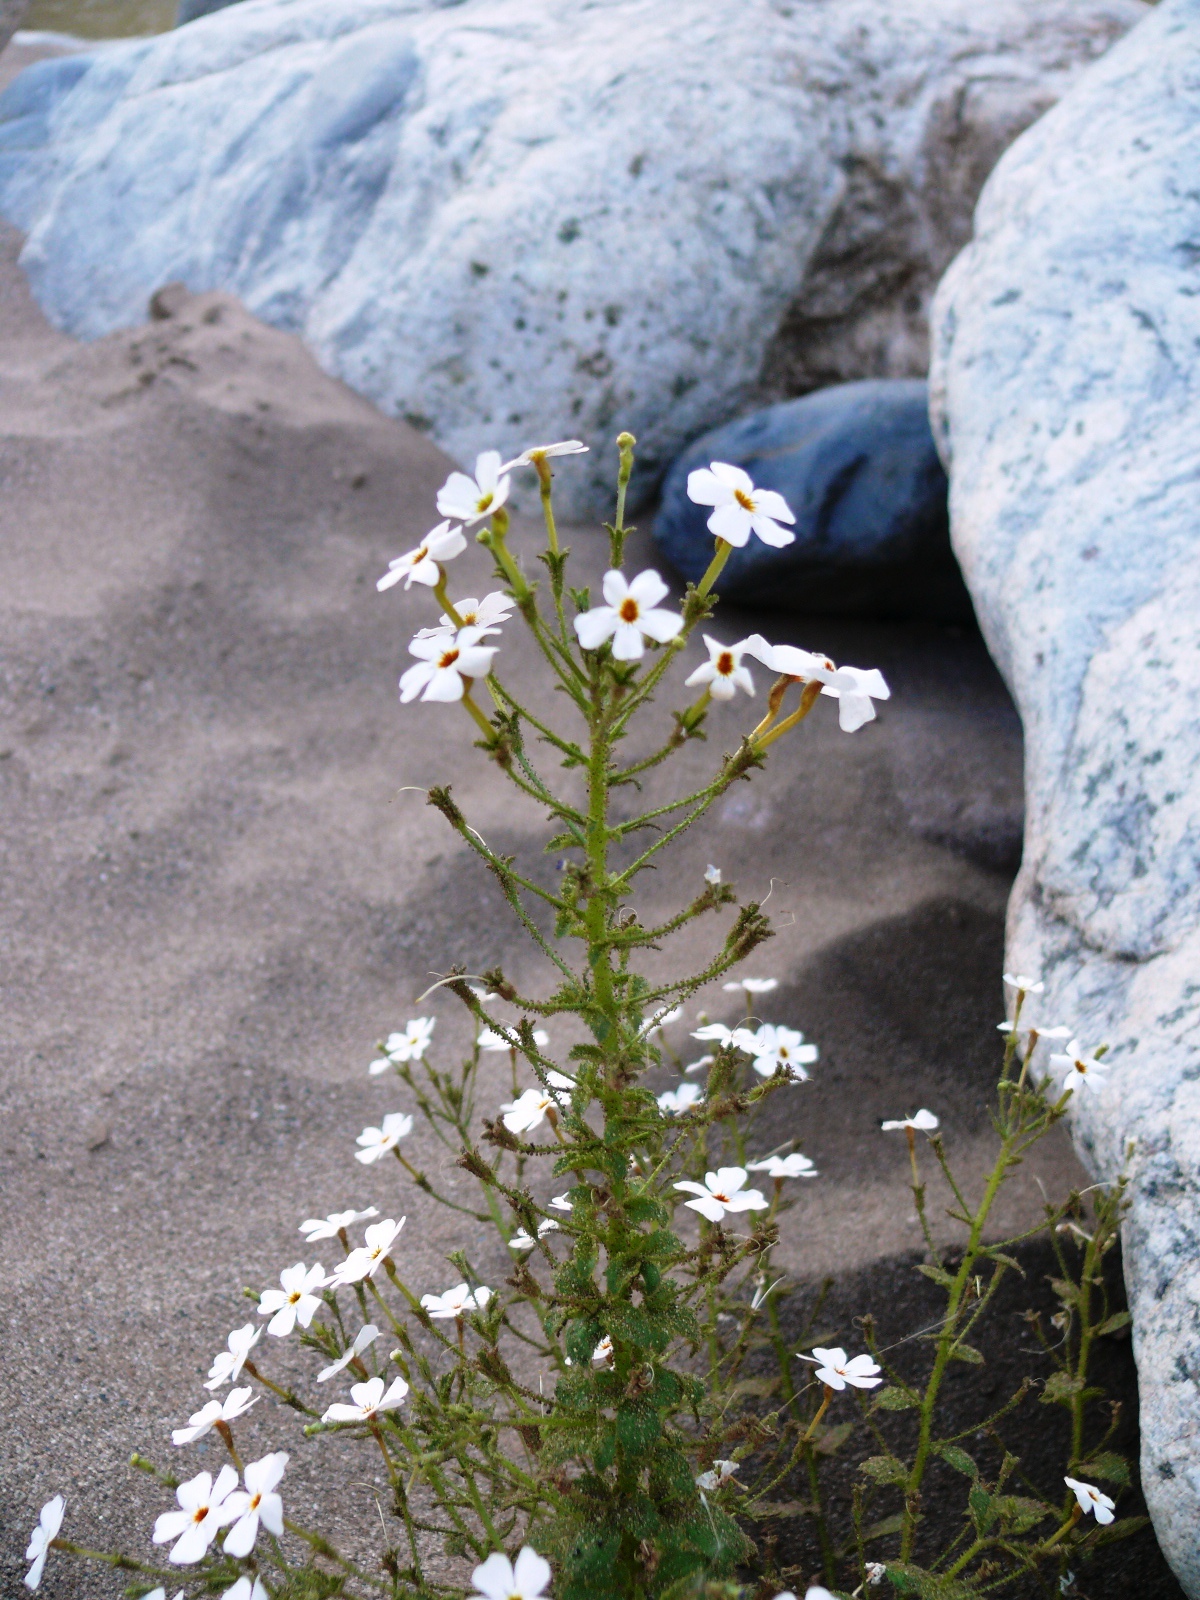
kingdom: Plantae
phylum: Tracheophyta
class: Magnoliopsida
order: Lamiales
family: Scrophulariaceae
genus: Jamesbrittenia
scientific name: Jamesbrittenia megadenia
